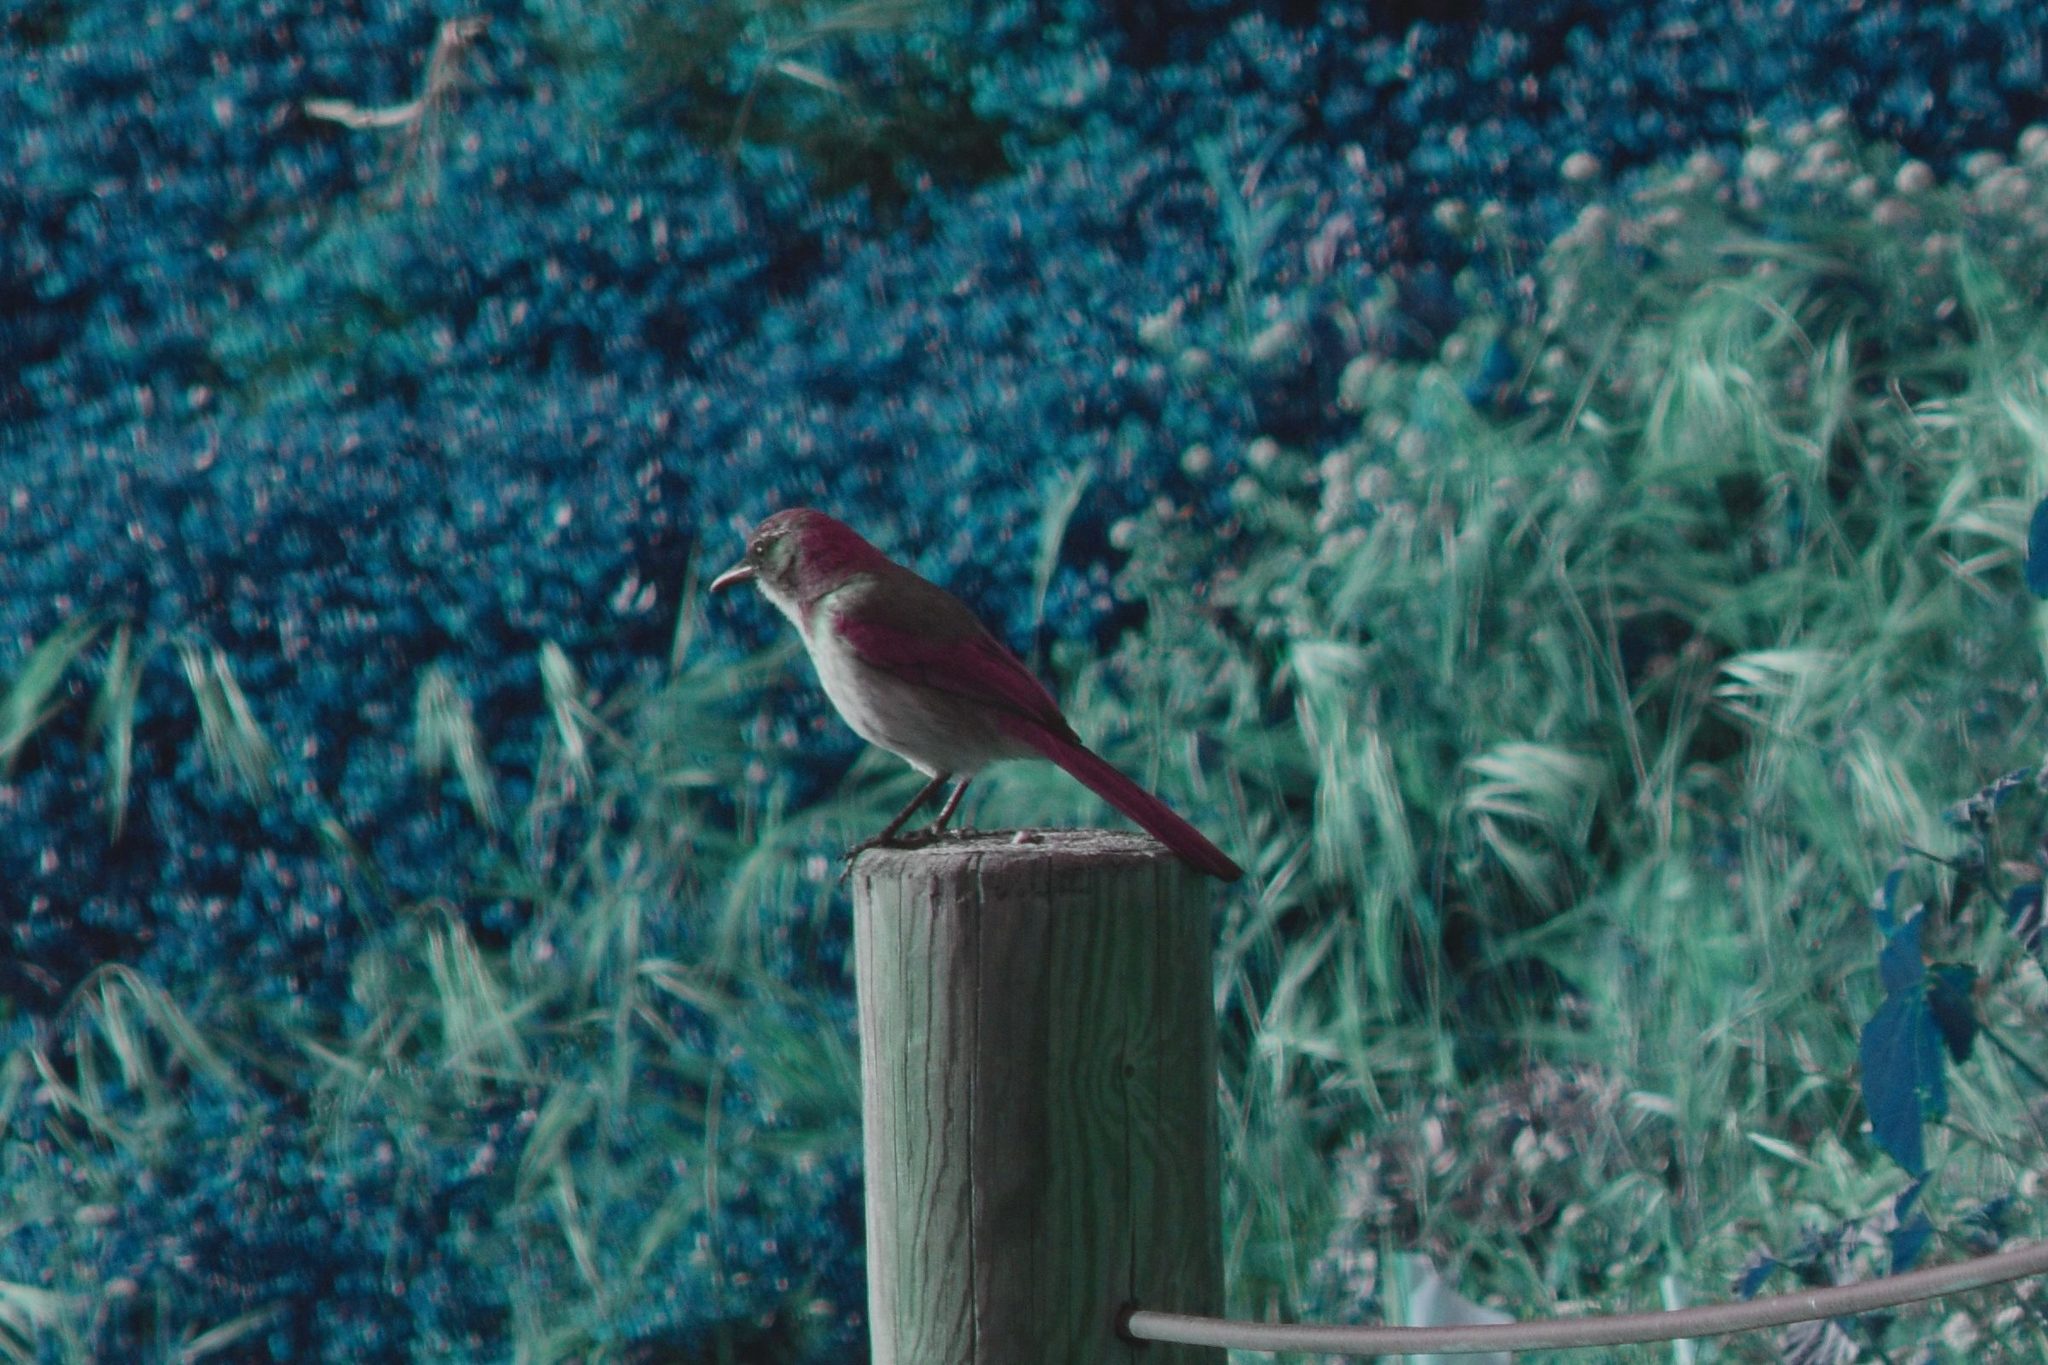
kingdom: Animalia
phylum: Chordata
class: Aves
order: Passeriformes
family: Corvidae
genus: Aphelocoma
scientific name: Aphelocoma californica
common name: California scrub-jay
